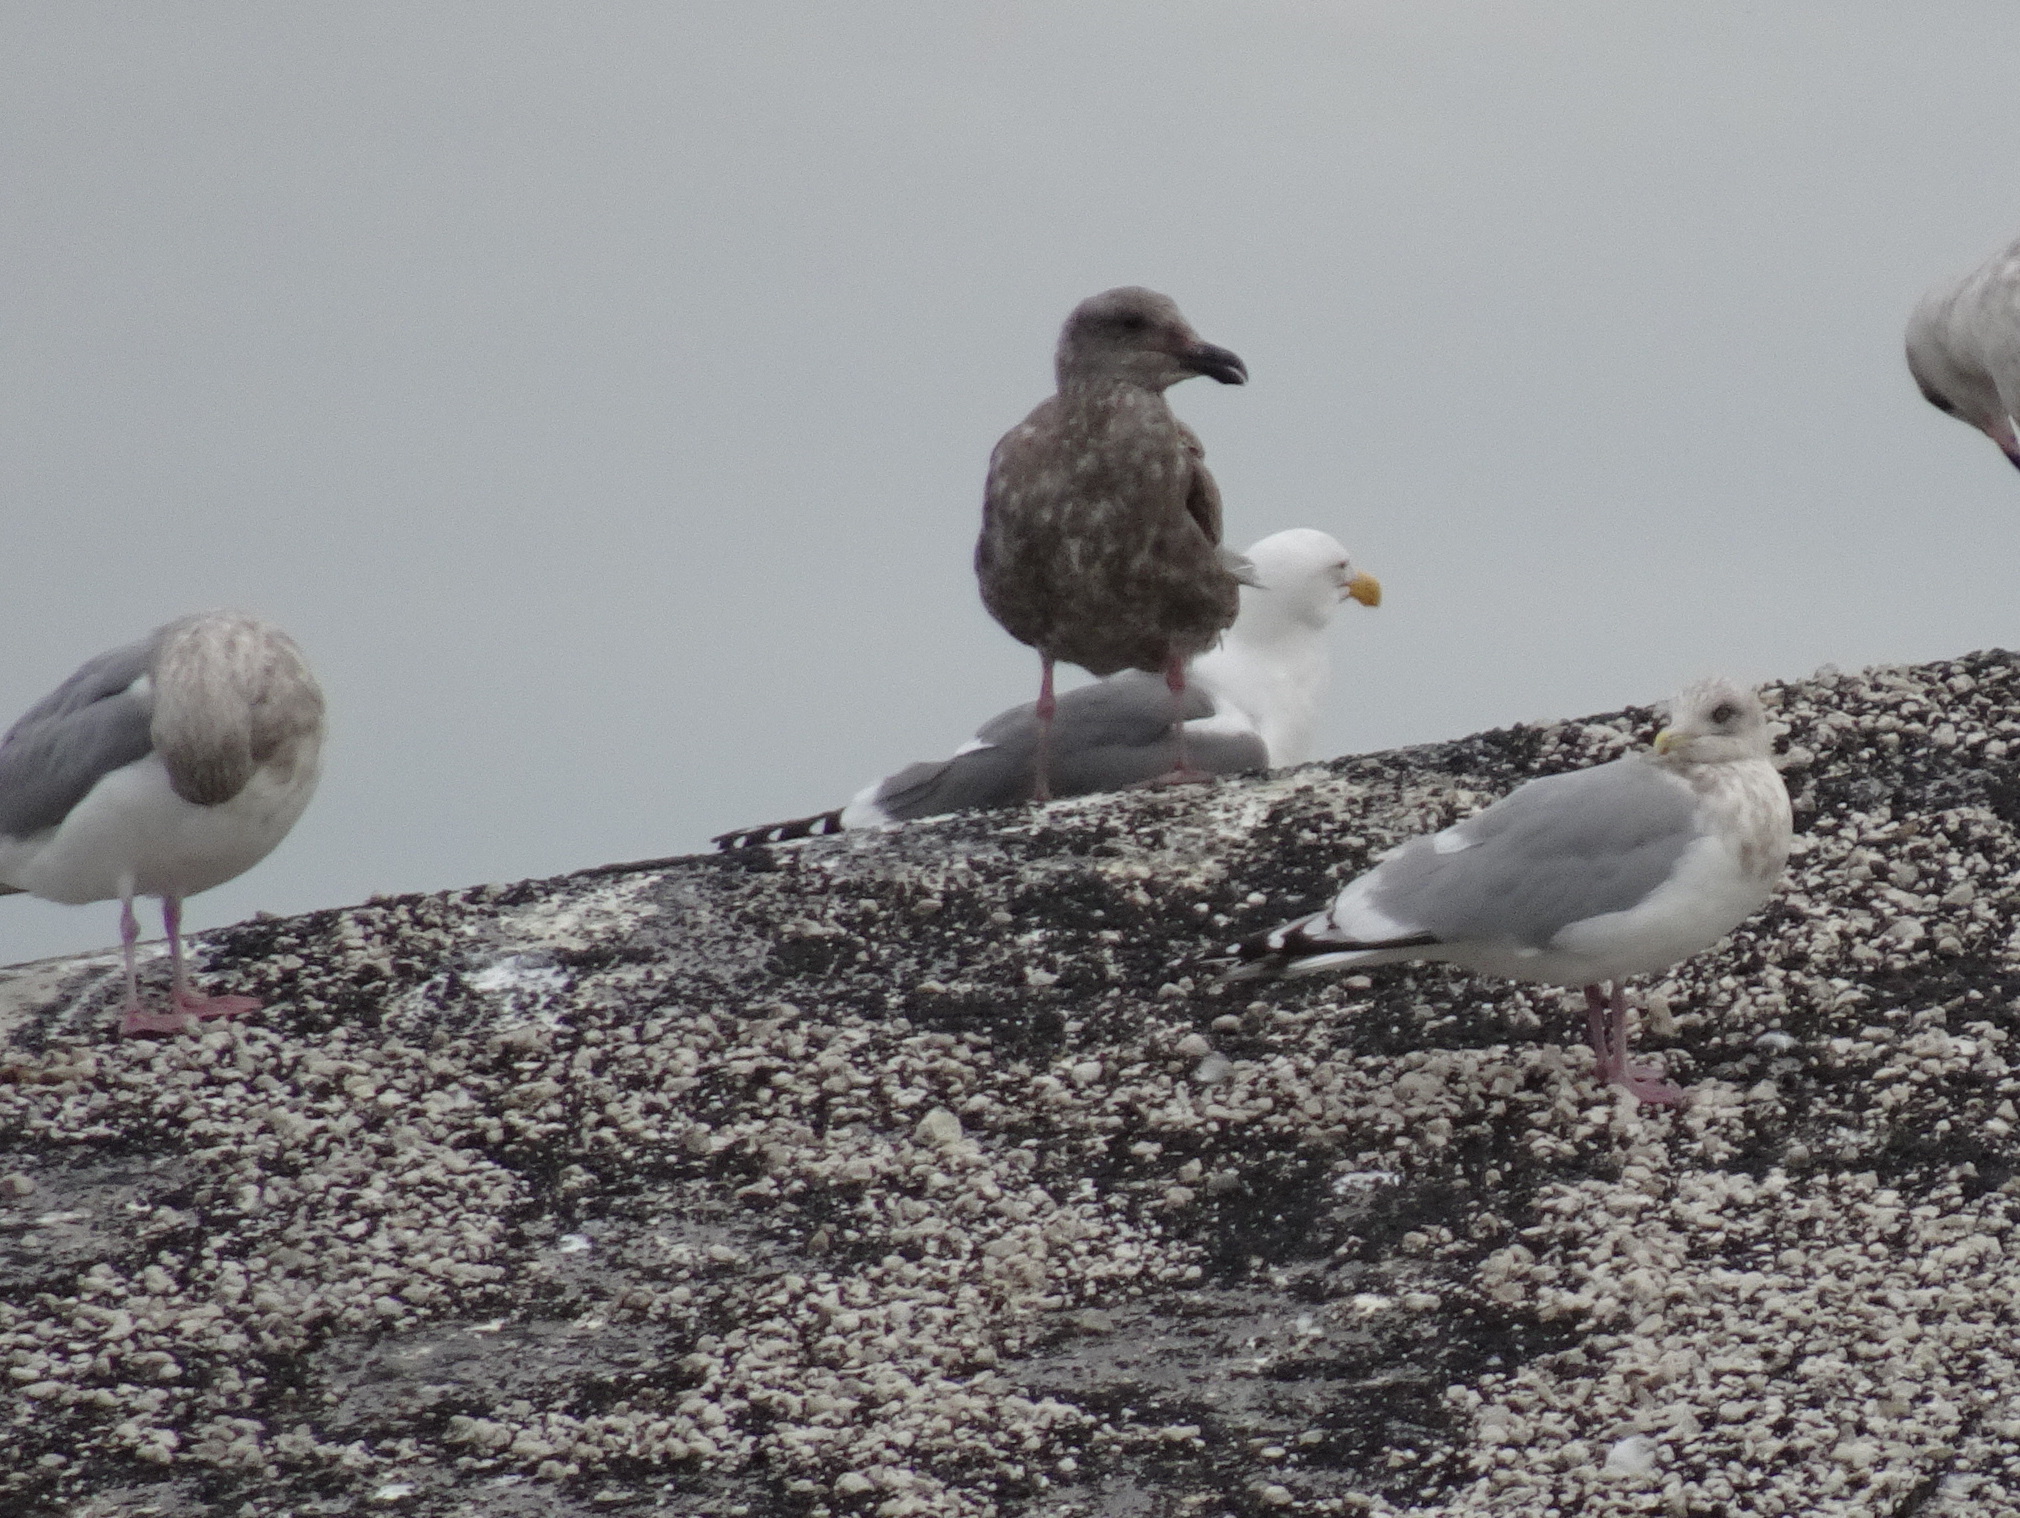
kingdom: Animalia
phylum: Chordata
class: Aves
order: Charadriiformes
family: Laridae
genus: Larus
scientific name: Larus glaucoides
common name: Iceland gull
